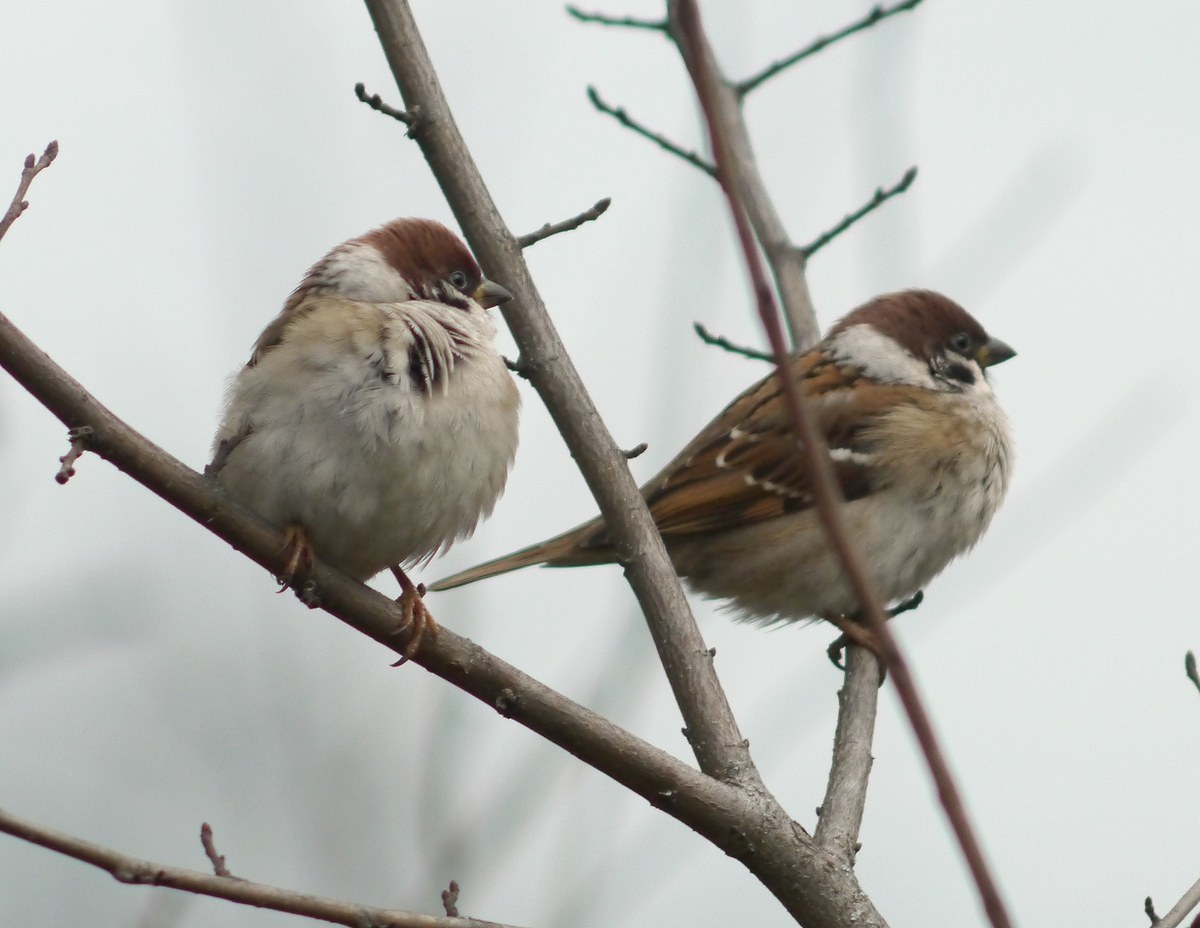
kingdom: Animalia
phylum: Chordata
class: Aves
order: Passeriformes
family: Passeridae
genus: Passer
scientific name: Passer montanus
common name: Eurasian tree sparrow
